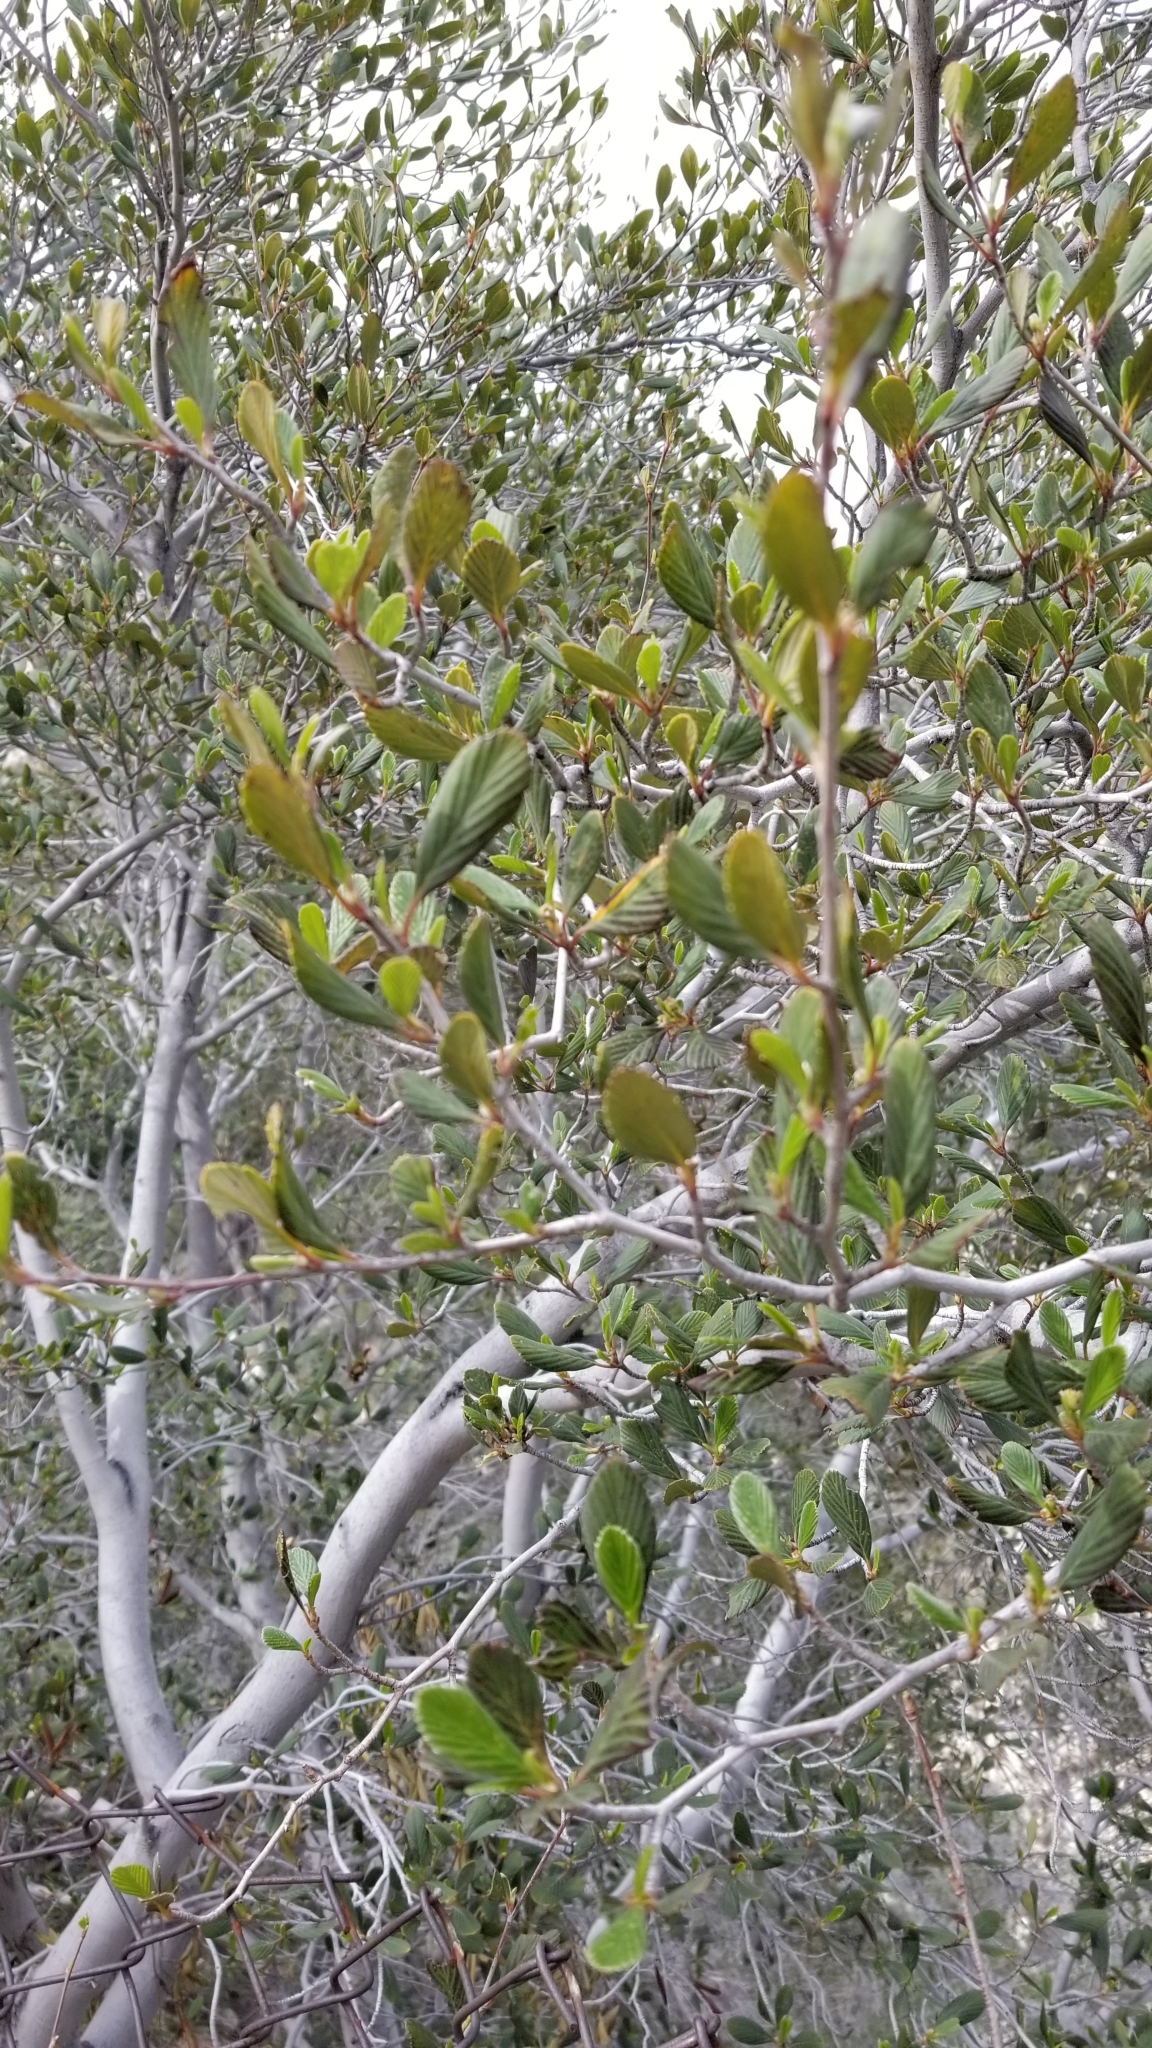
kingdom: Plantae
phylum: Tracheophyta
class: Magnoliopsida
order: Rosales
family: Rosaceae
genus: Cercocarpus
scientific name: Cercocarpus betuloides
